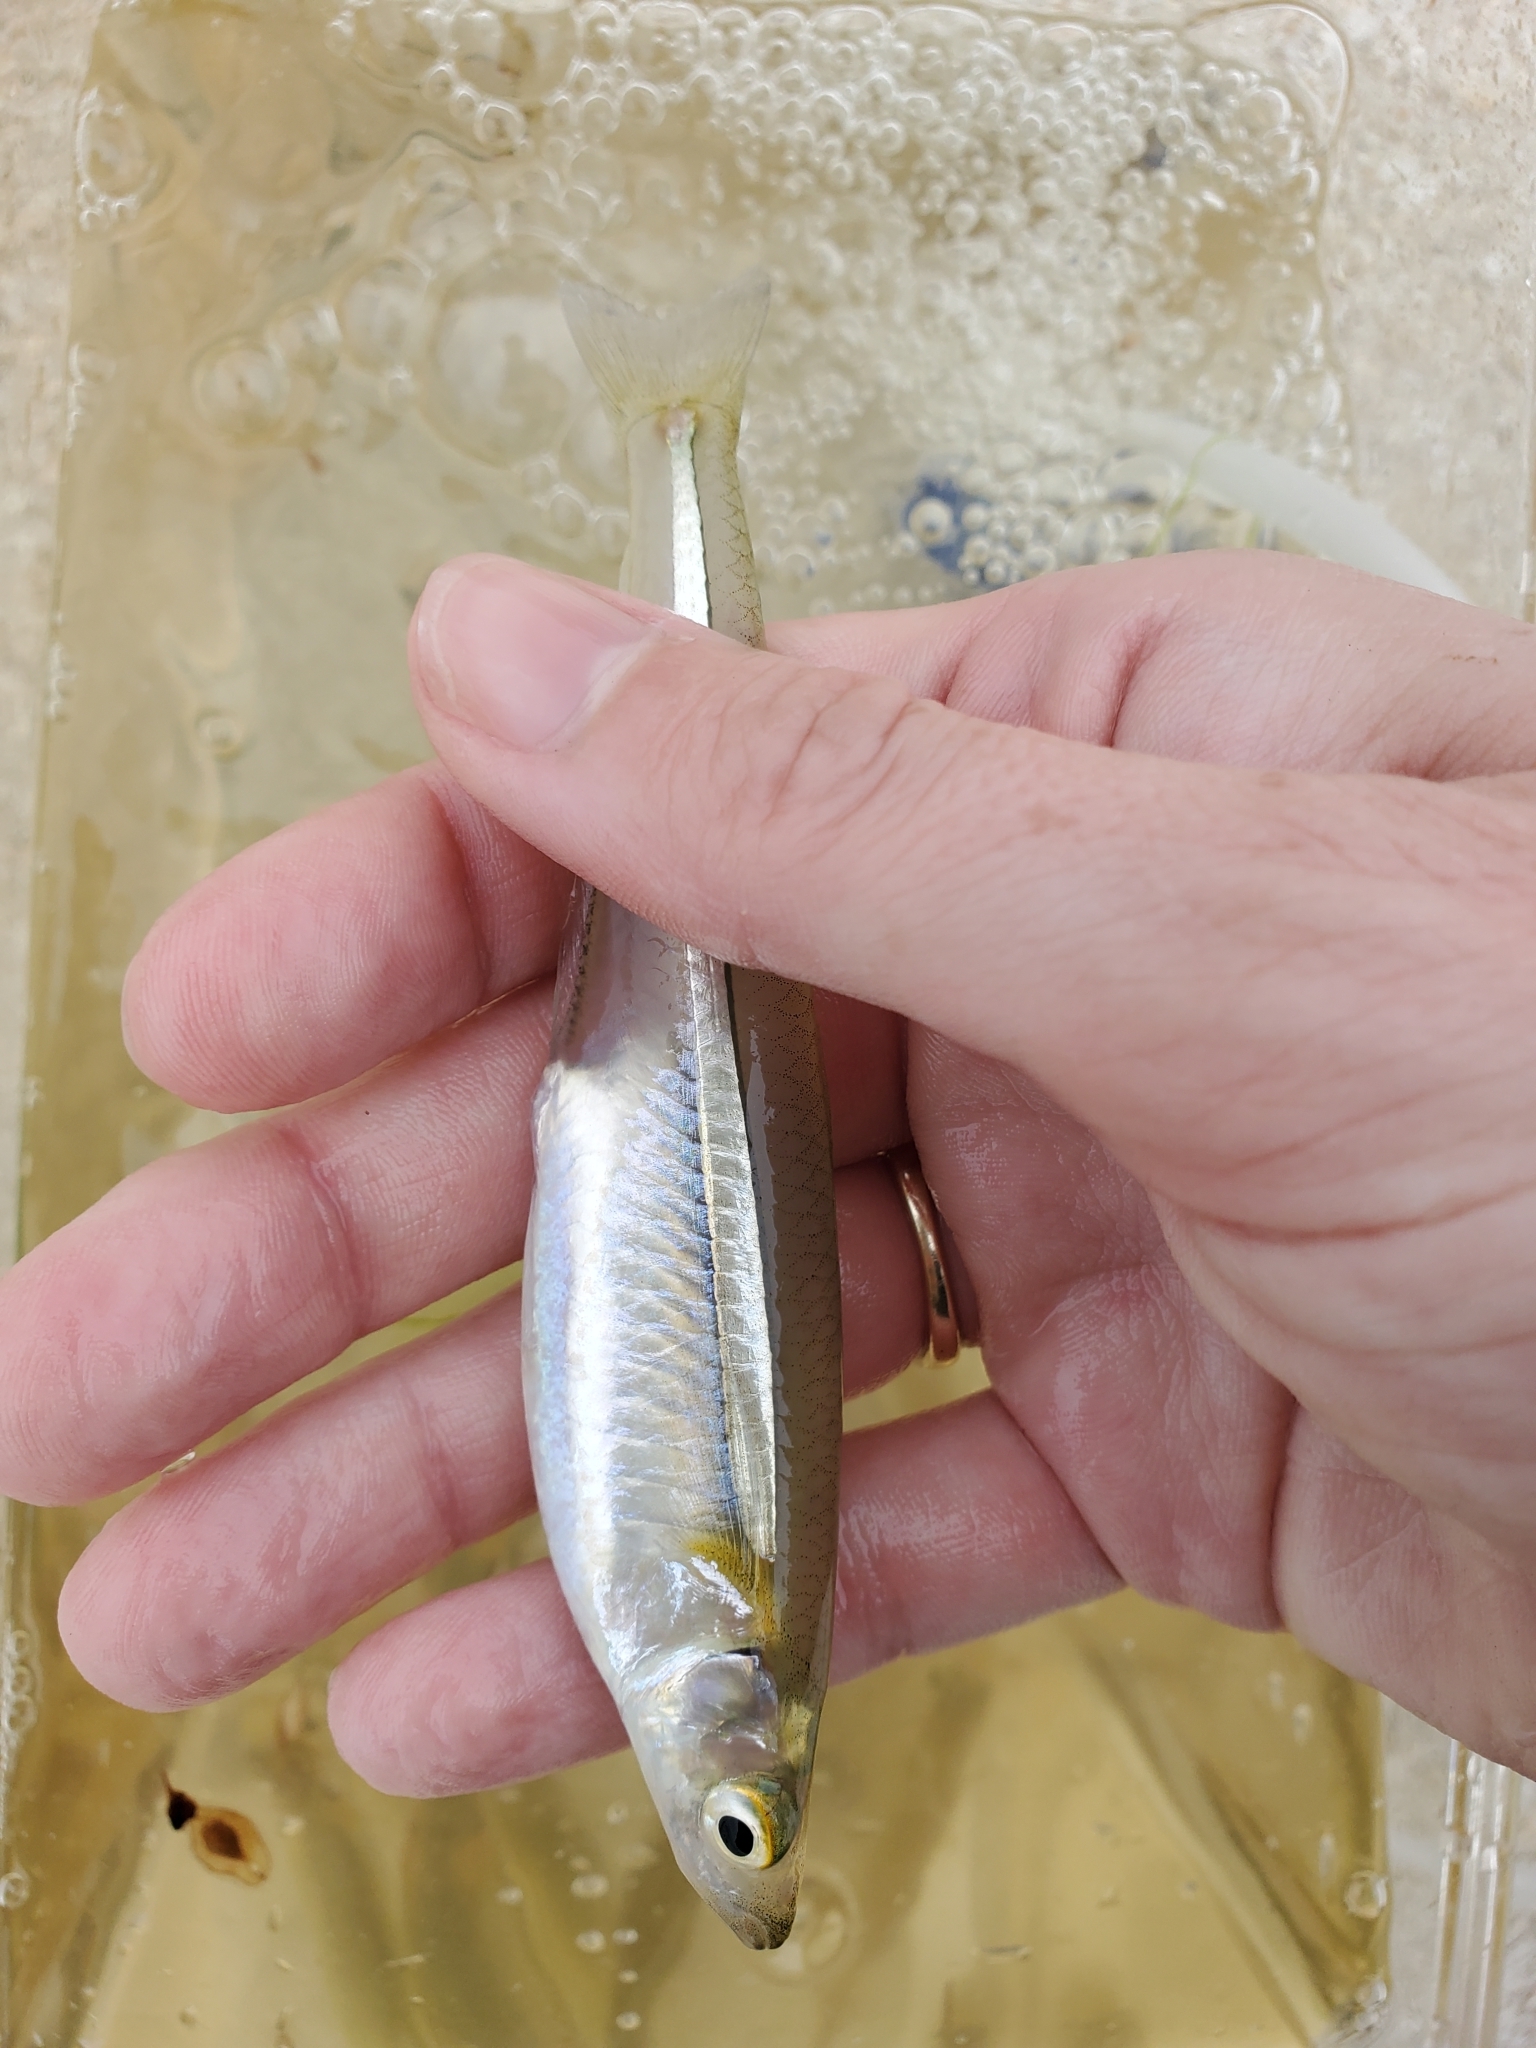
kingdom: Animalia
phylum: Chordata
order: Atheriniformes
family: Atherinopsidae
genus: Menidia
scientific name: Menidia menidia
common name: Atlantic silverside
